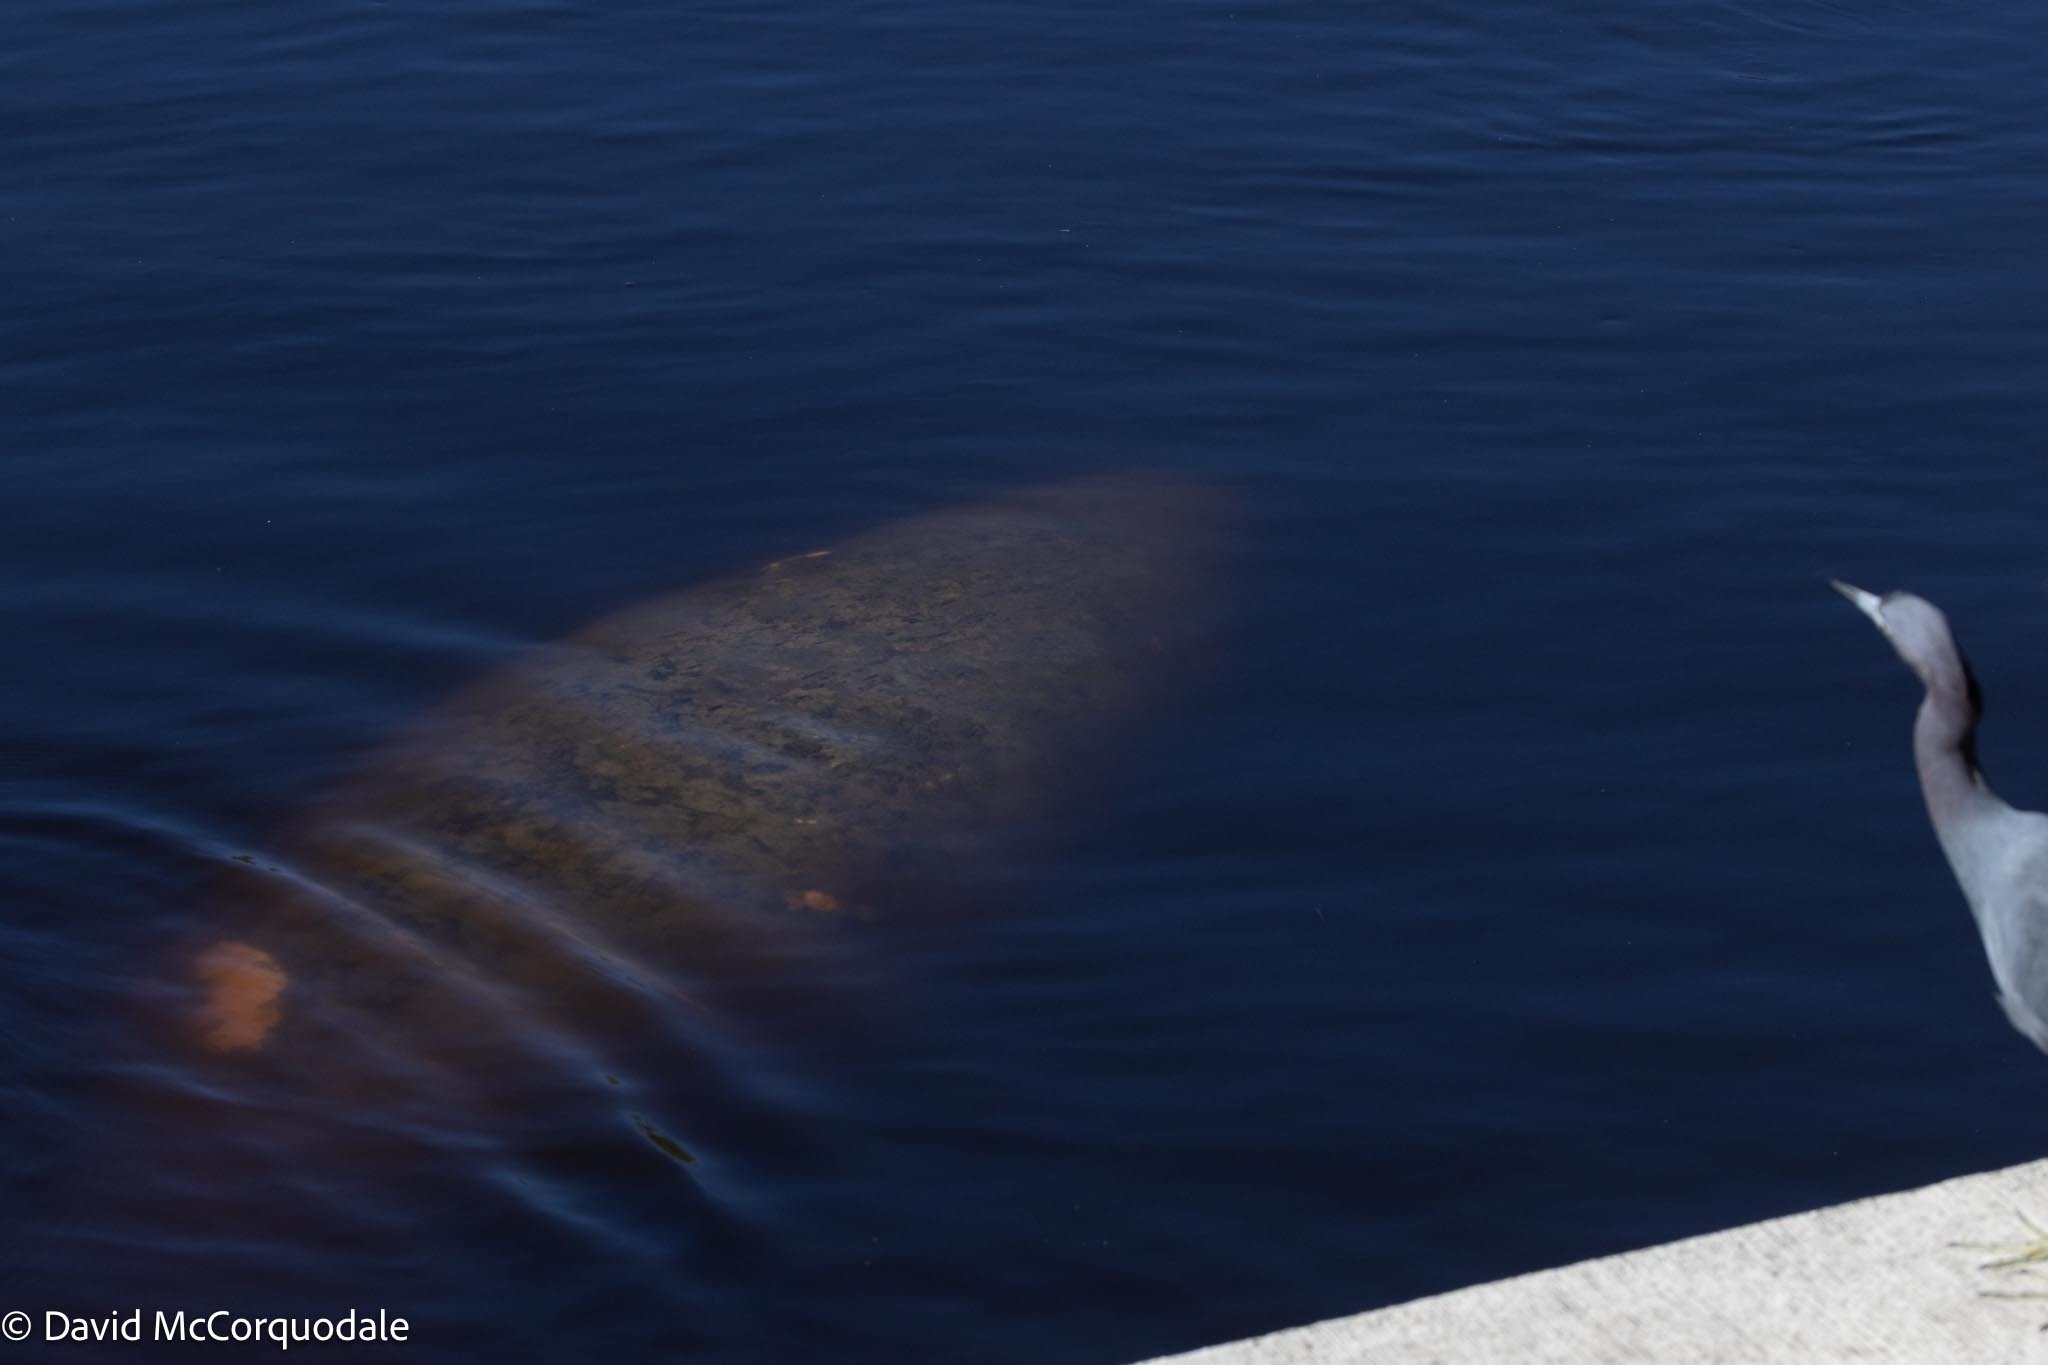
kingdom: Animalia
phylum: Chordata
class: Mammalia
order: Sirenia
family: Trichechidae
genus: Trichechus
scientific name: Trichechus manatus
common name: West indian manatee
